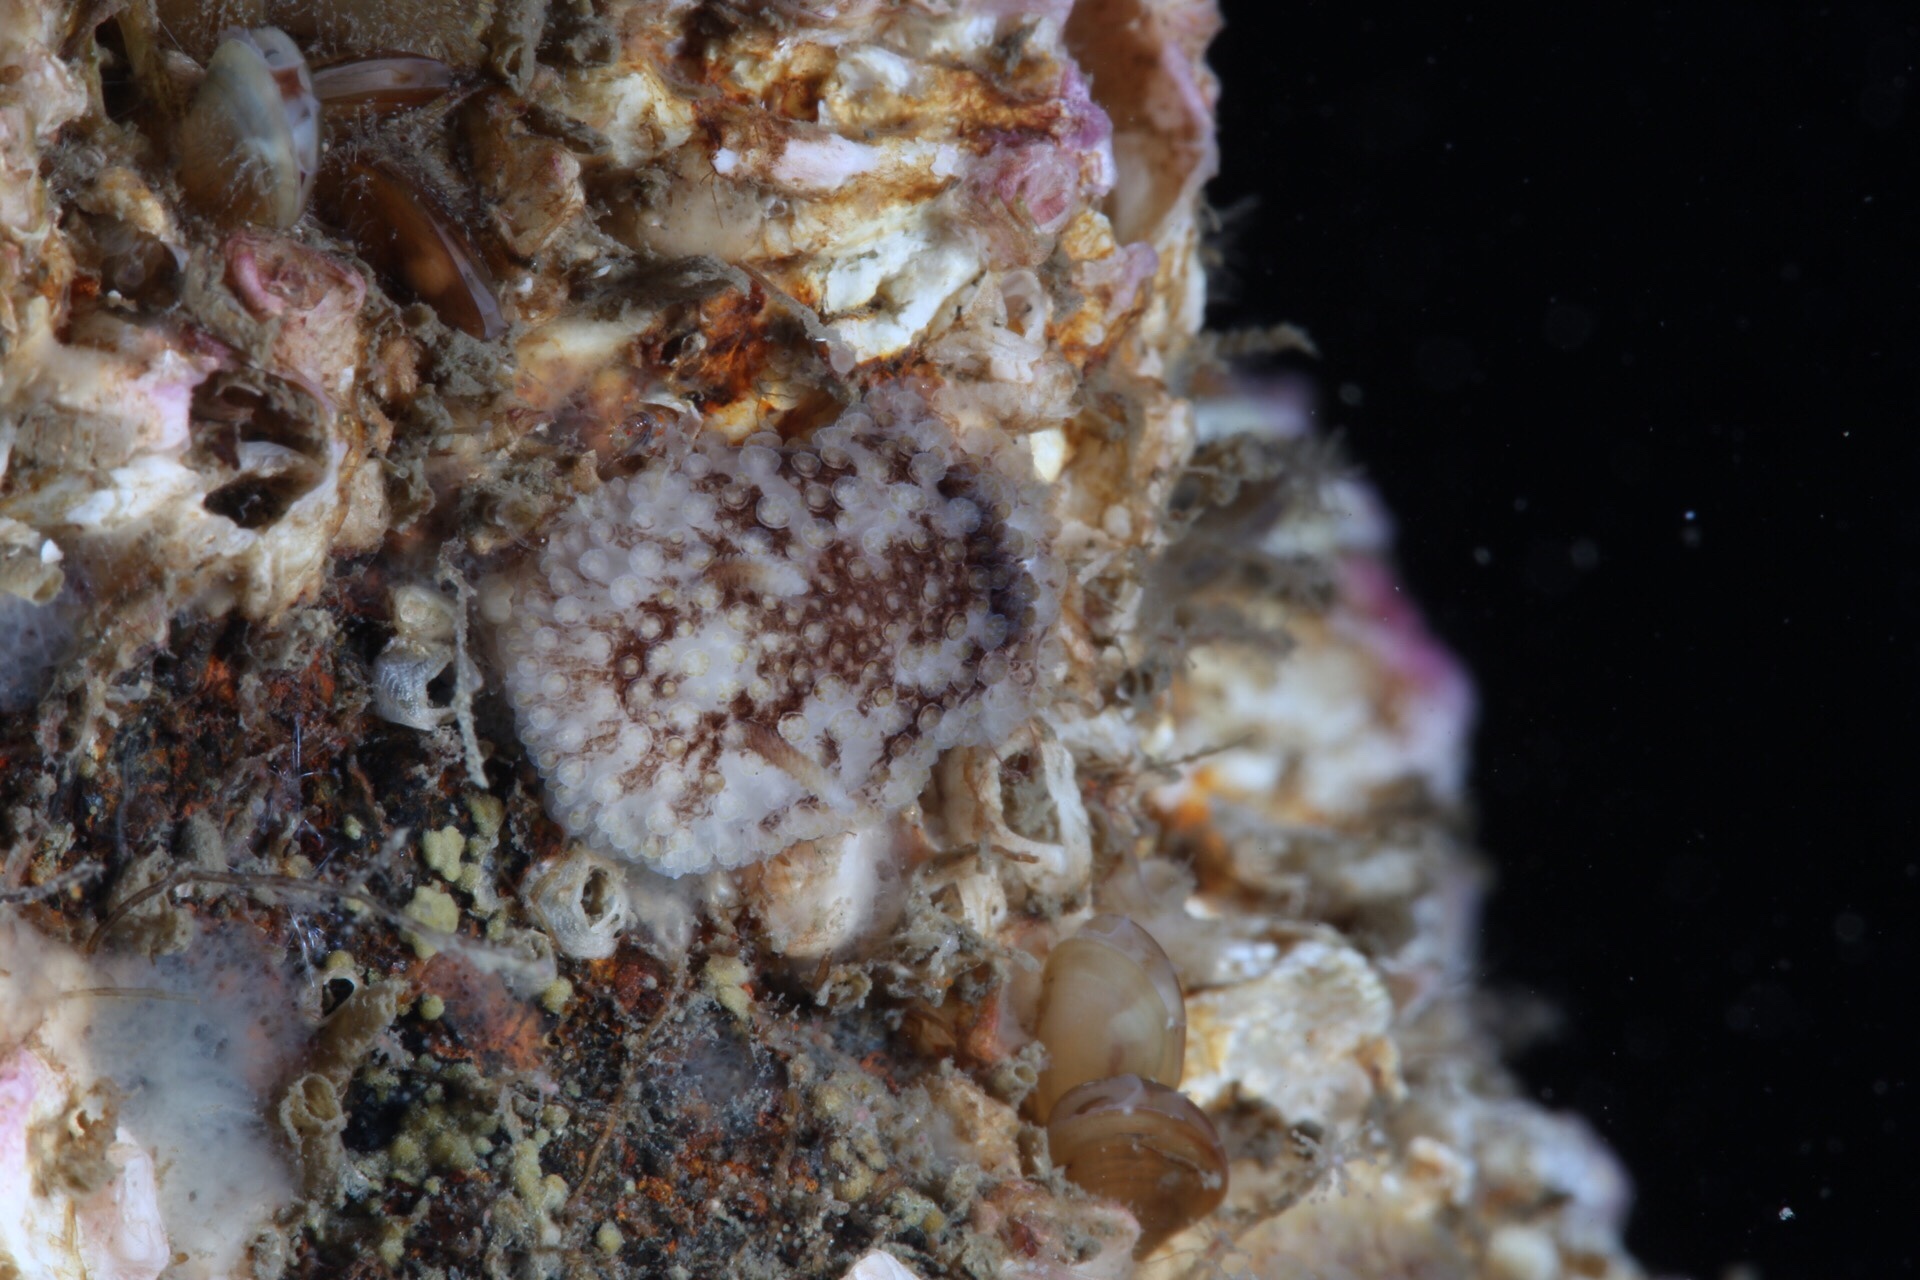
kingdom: Animalia
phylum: Mollusca
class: Gastropoda
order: Nudibranchia
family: Onchidorididae
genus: Onchidoris
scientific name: Onchidoris bilamellata
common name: Barnacle-eating onchidoris
